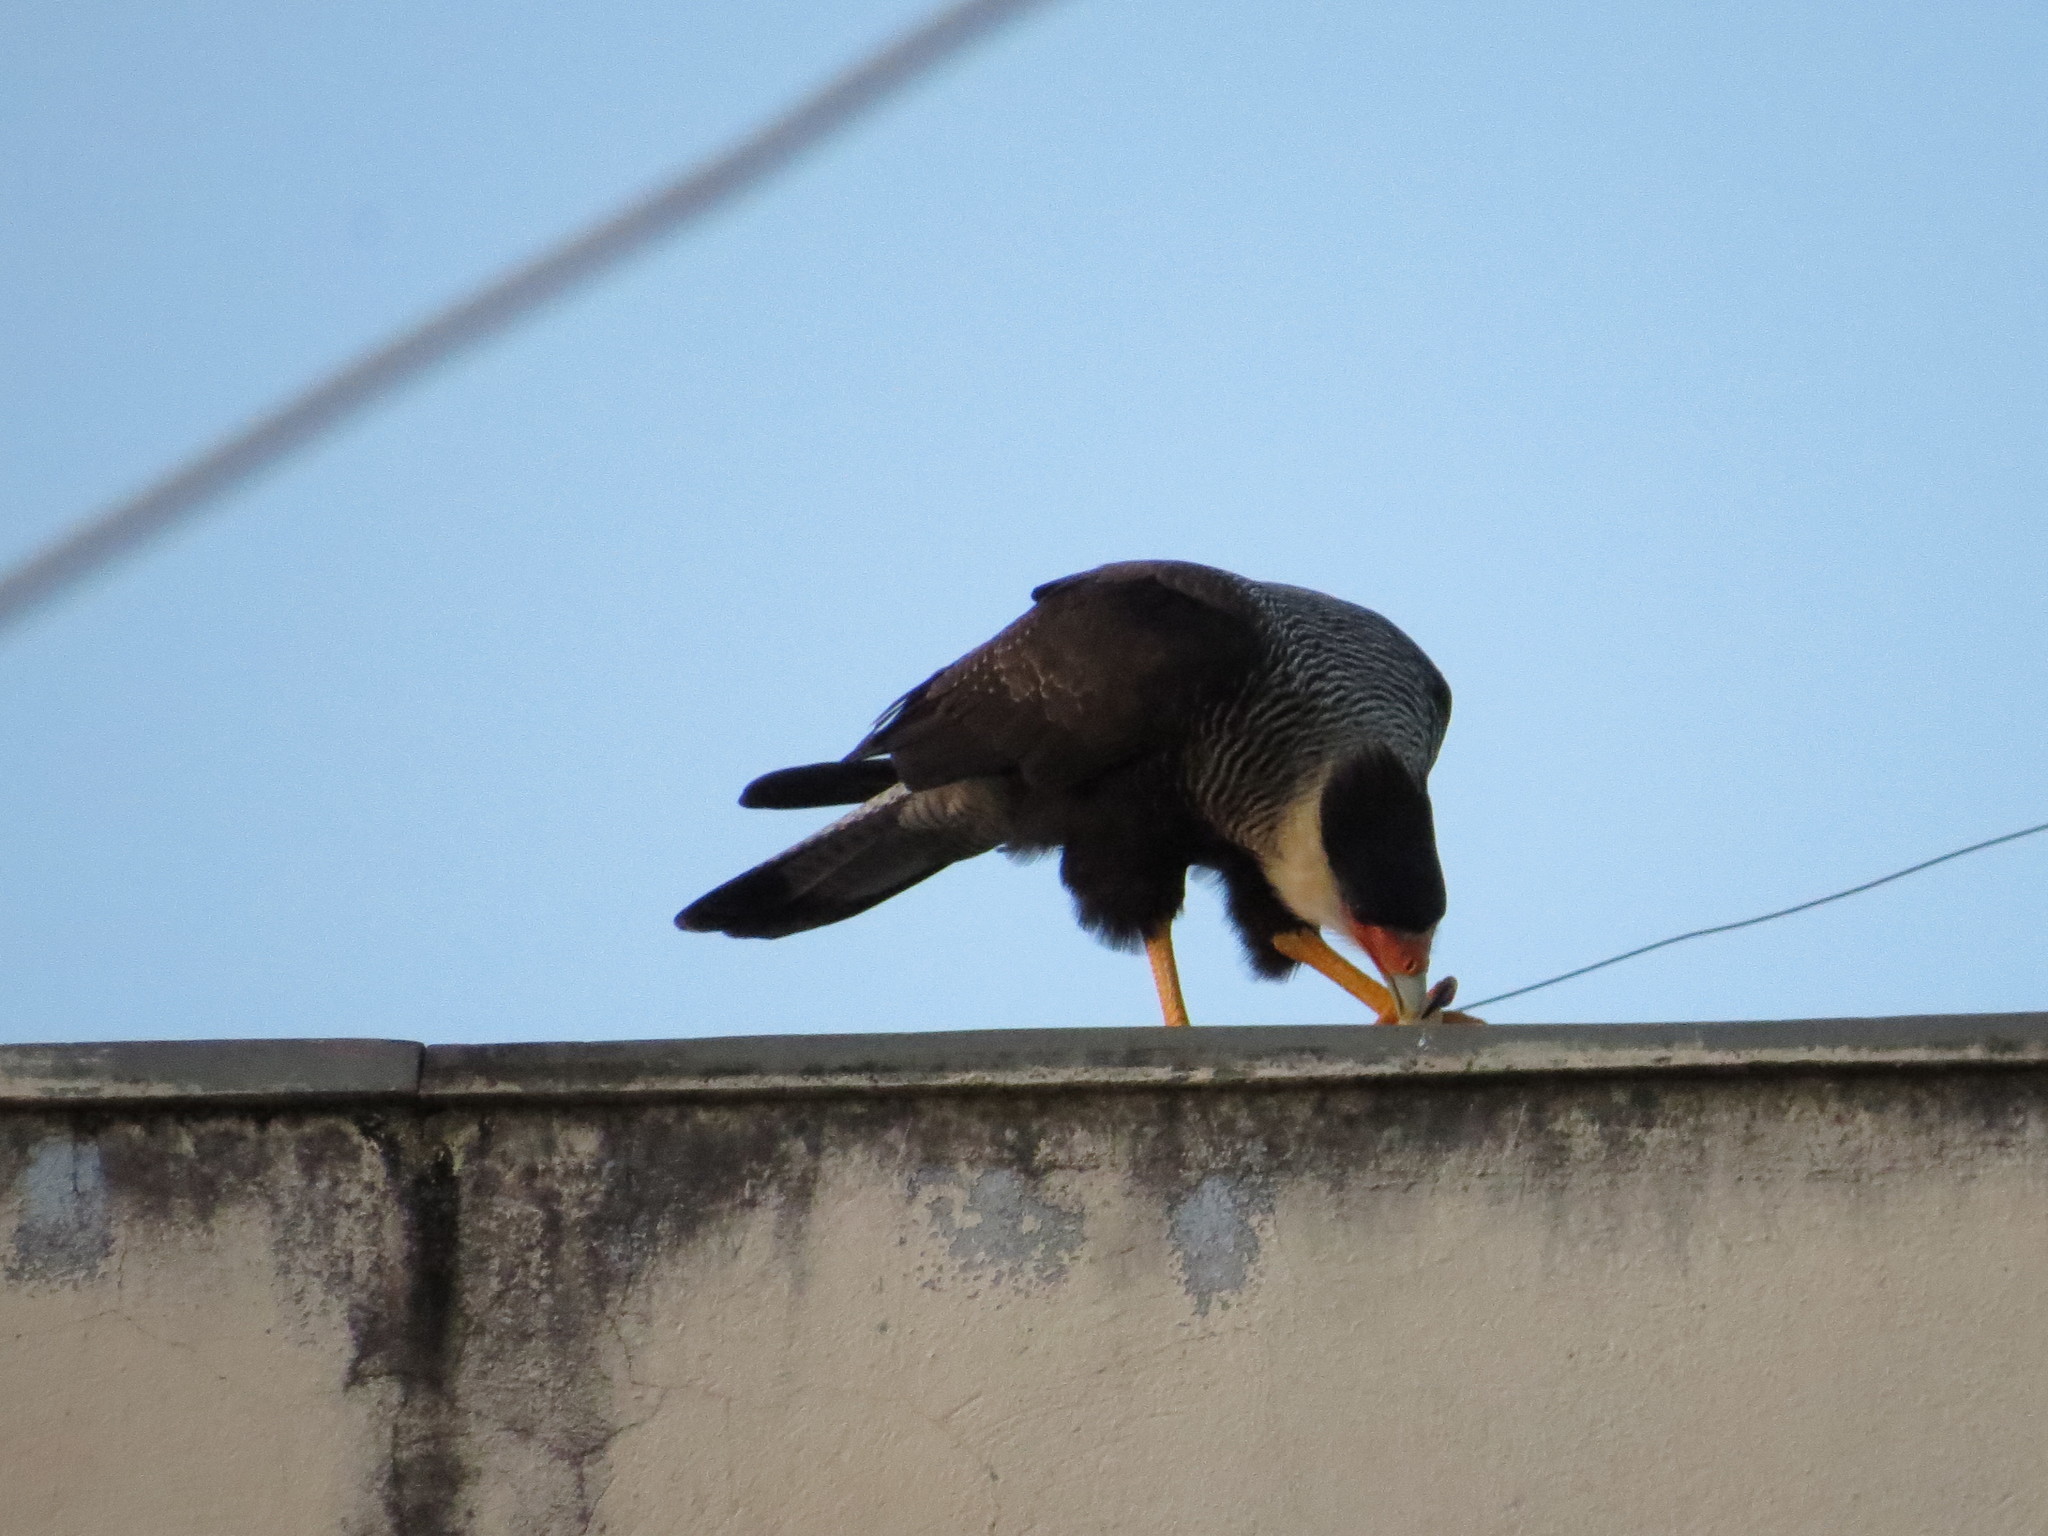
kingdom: Animalia
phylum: Chordata
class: Aves
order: Falconiformes
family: Falconidae
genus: Caracara
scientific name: Caracara plancus
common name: Southern caracara
